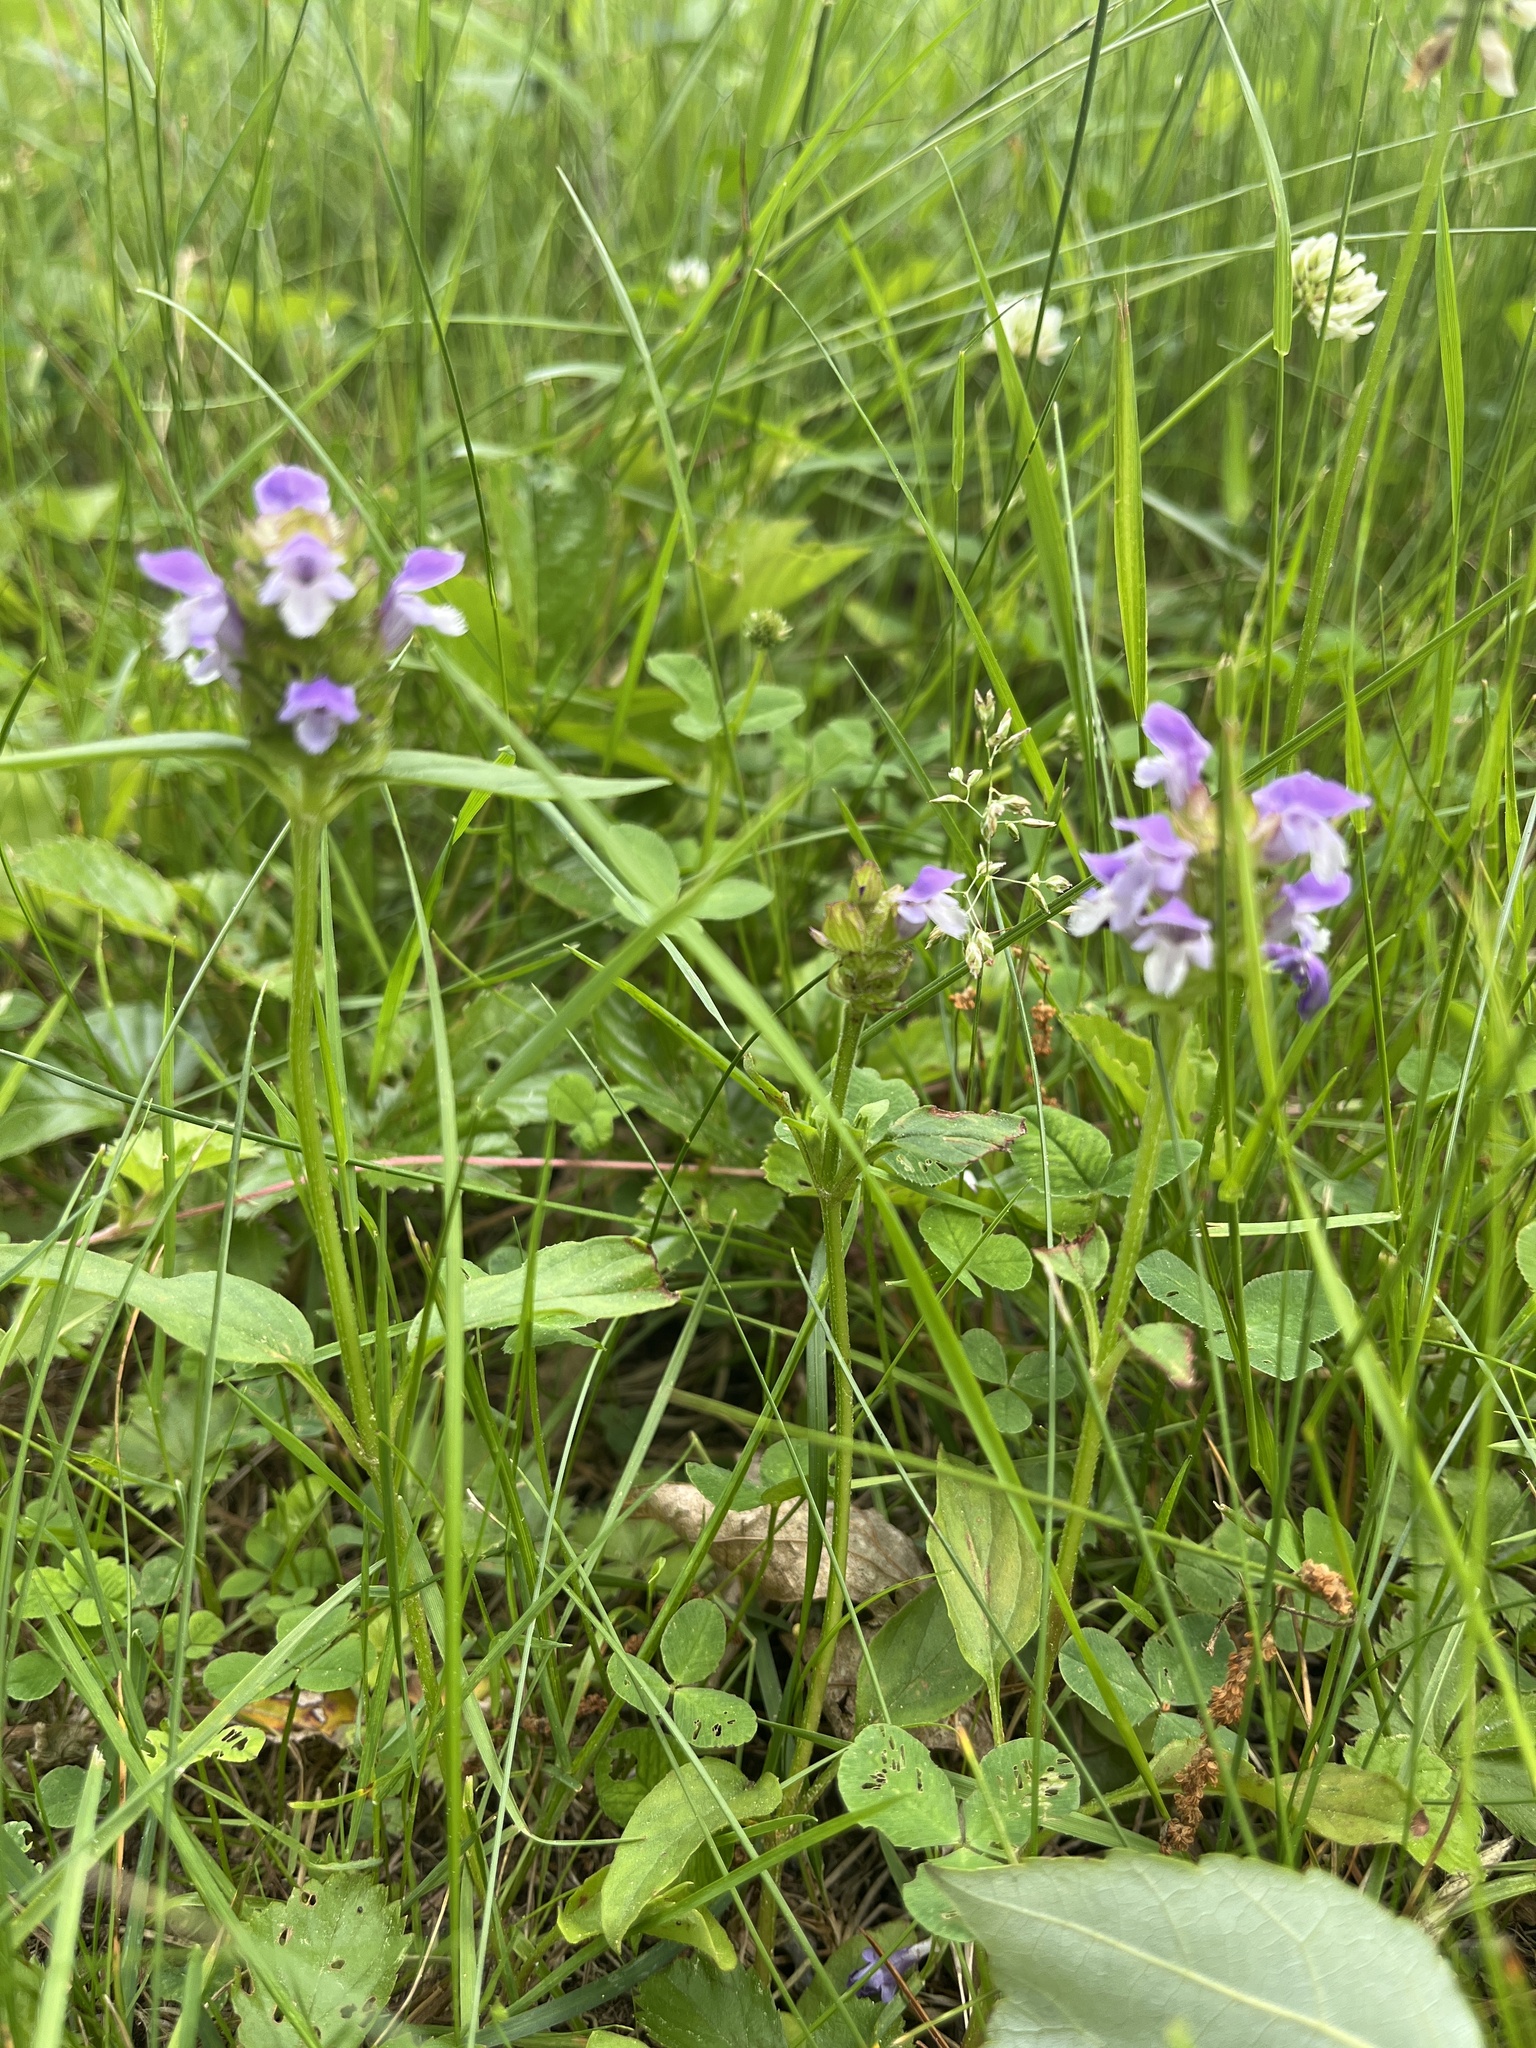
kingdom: Plantae
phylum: Tracheophyta
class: Magnoliopsida
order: Lamiales
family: Lamiaceae
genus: Prunella
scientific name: Prunella vulgaris
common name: Heal-all
